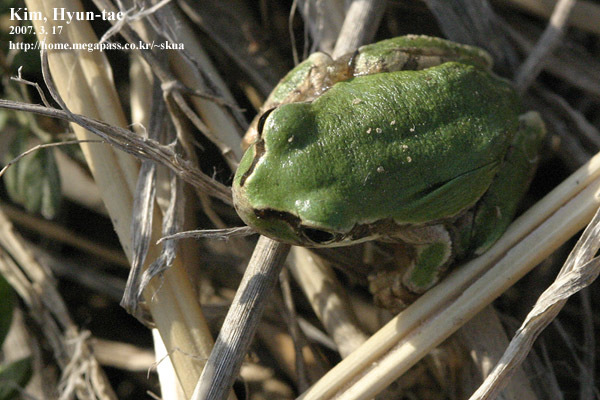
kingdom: Animalia
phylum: Chordata
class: Amphibia
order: Anura
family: Hylidae
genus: Dryophytes
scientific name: Dryophytes japonicus
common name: Japanese treefrog
